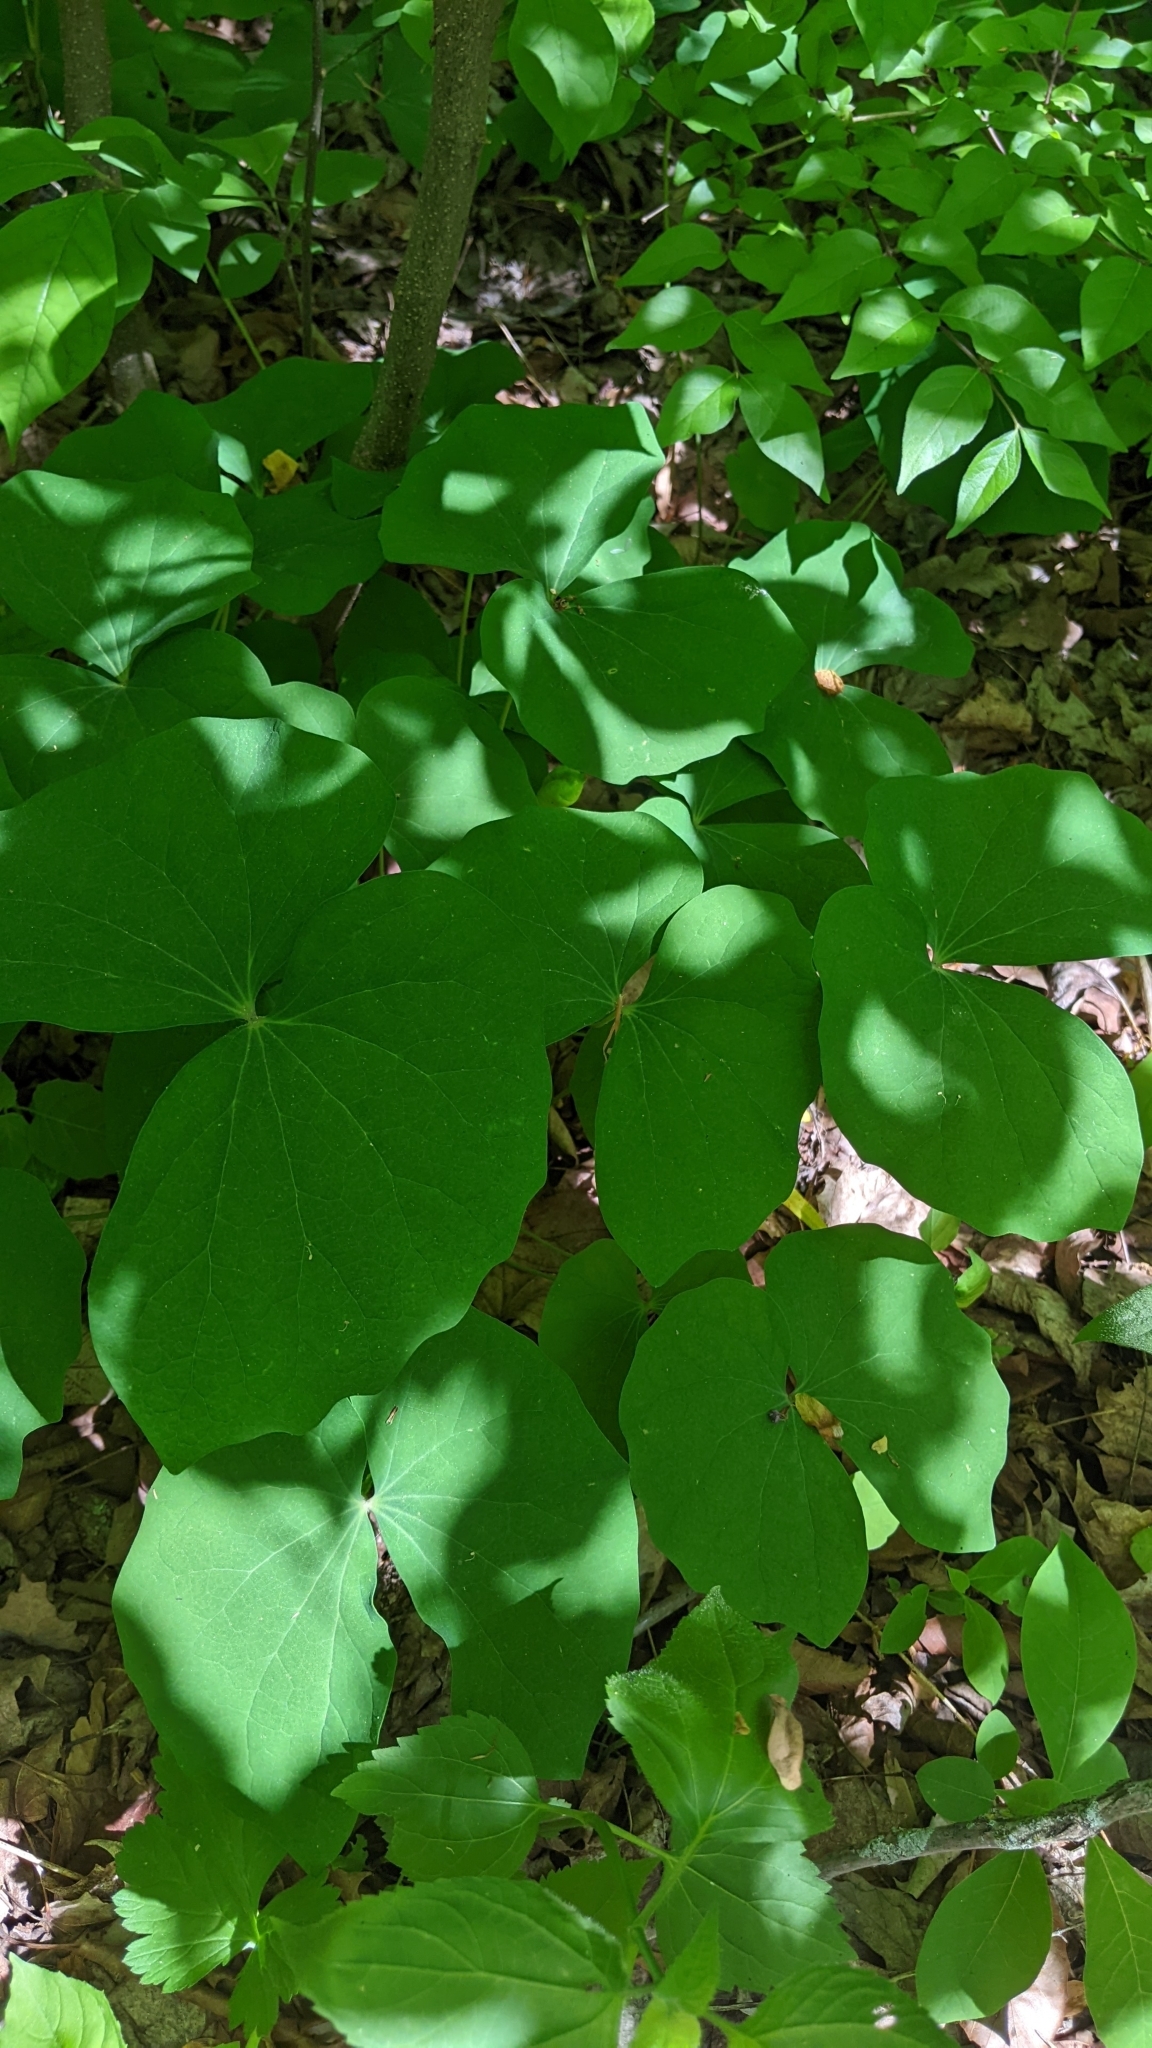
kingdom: Plantae
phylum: Tracheophyta
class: Magnoliopsida
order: Ranunculales
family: Berberidaceae
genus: Jeffersonia
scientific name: Jeffersonia diphylla
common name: Rheumatism-root
